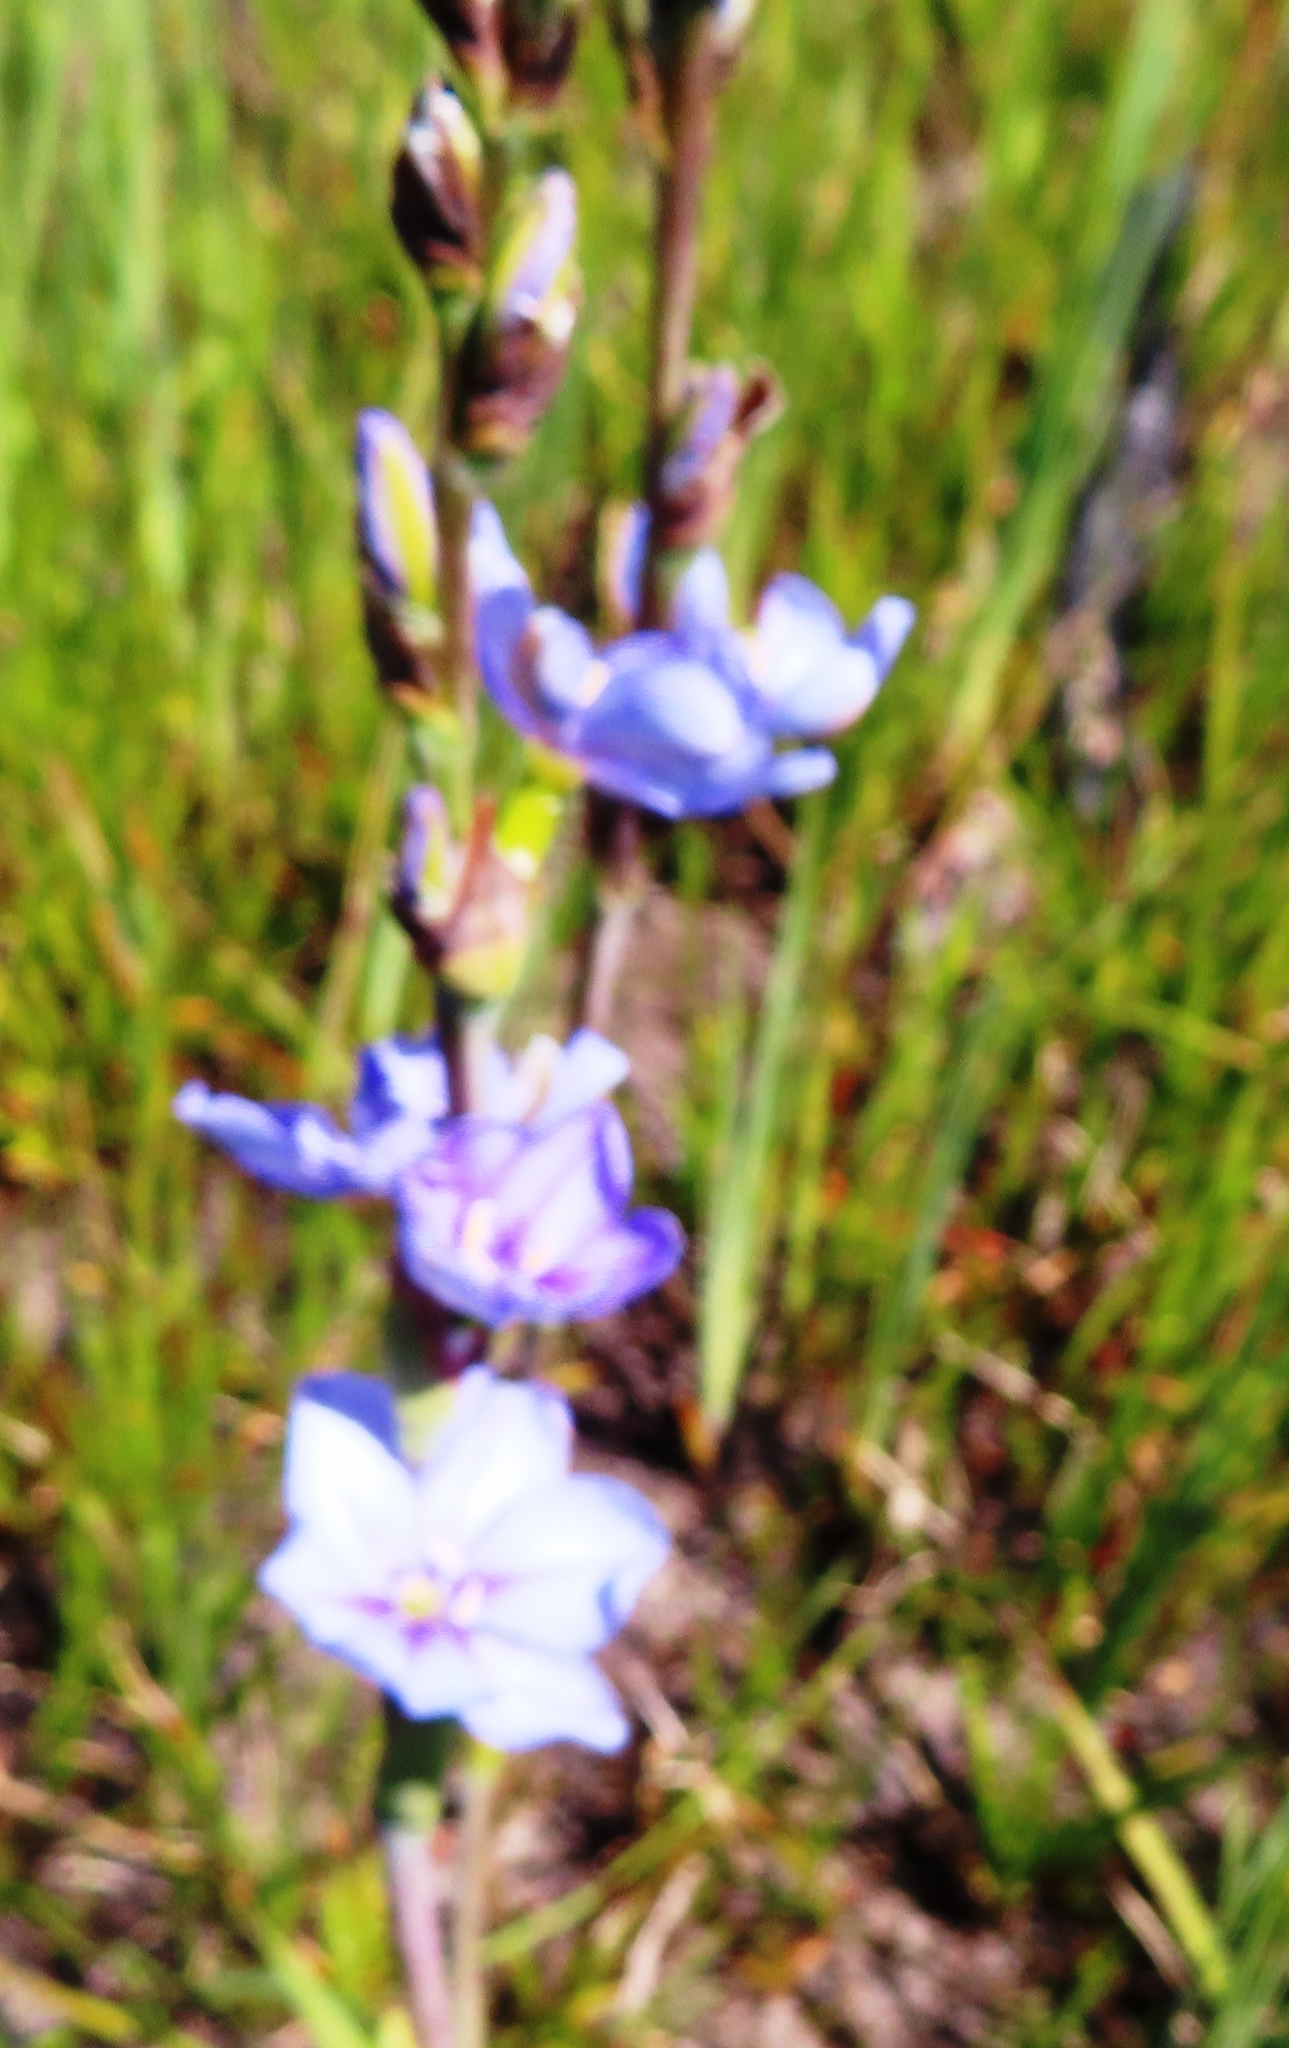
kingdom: Plantae
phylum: Tracheophyta
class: Liliopsida
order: Asparagales
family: Iridaceae
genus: Aristea
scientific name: Aristea spiralis
